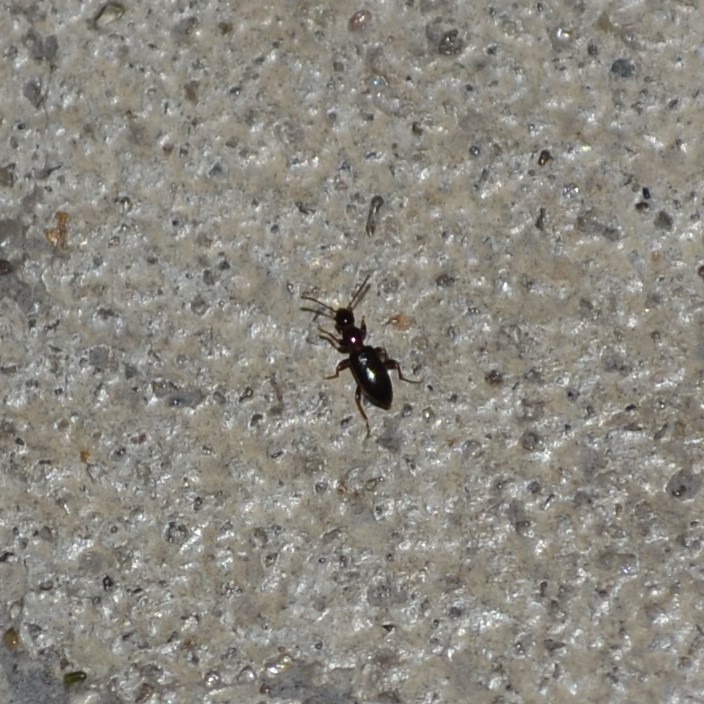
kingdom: Animalia
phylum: Arthropoda
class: Insecta
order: Coleoptera
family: Anthicidae
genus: Acanthinus
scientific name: Acanthinus
